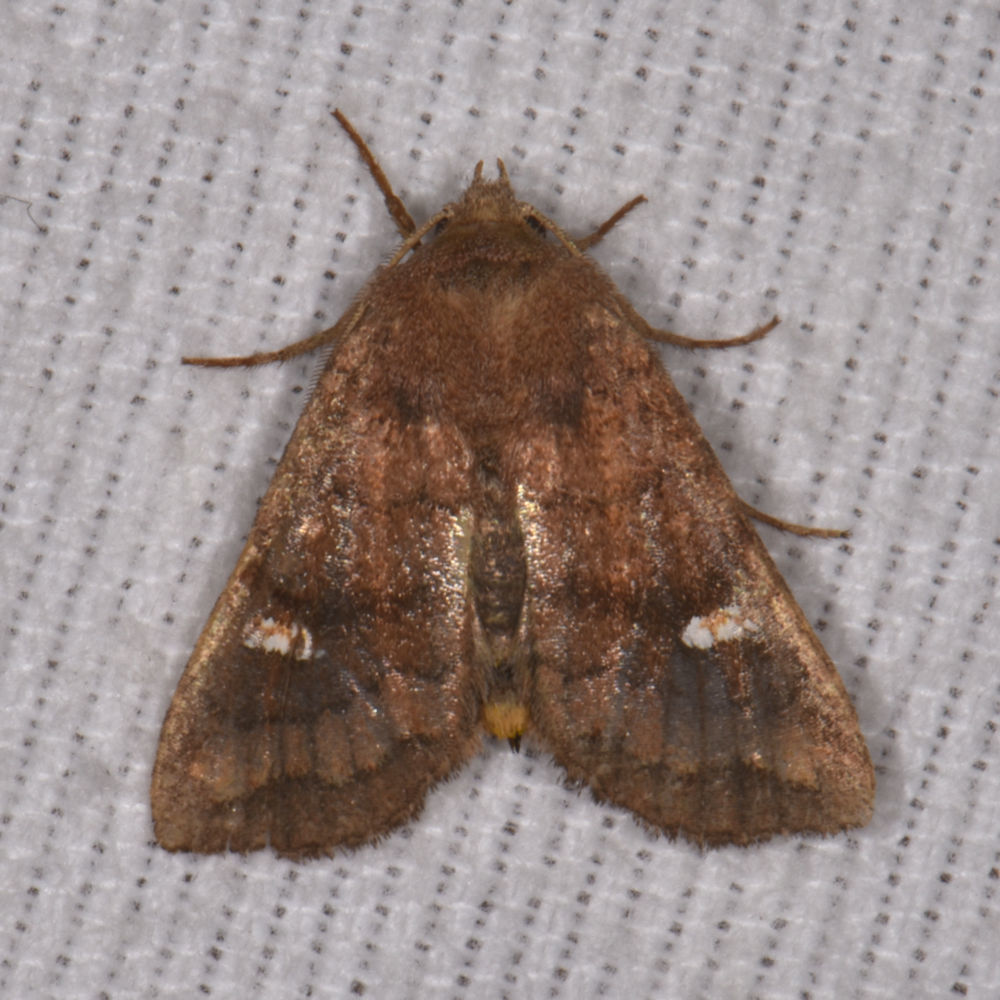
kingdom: Animalia
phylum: Arthropoda
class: Insecta
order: Lepidoptera
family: Noctuidae
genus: Tricholita
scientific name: Tricholita signata
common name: Signate quaker
